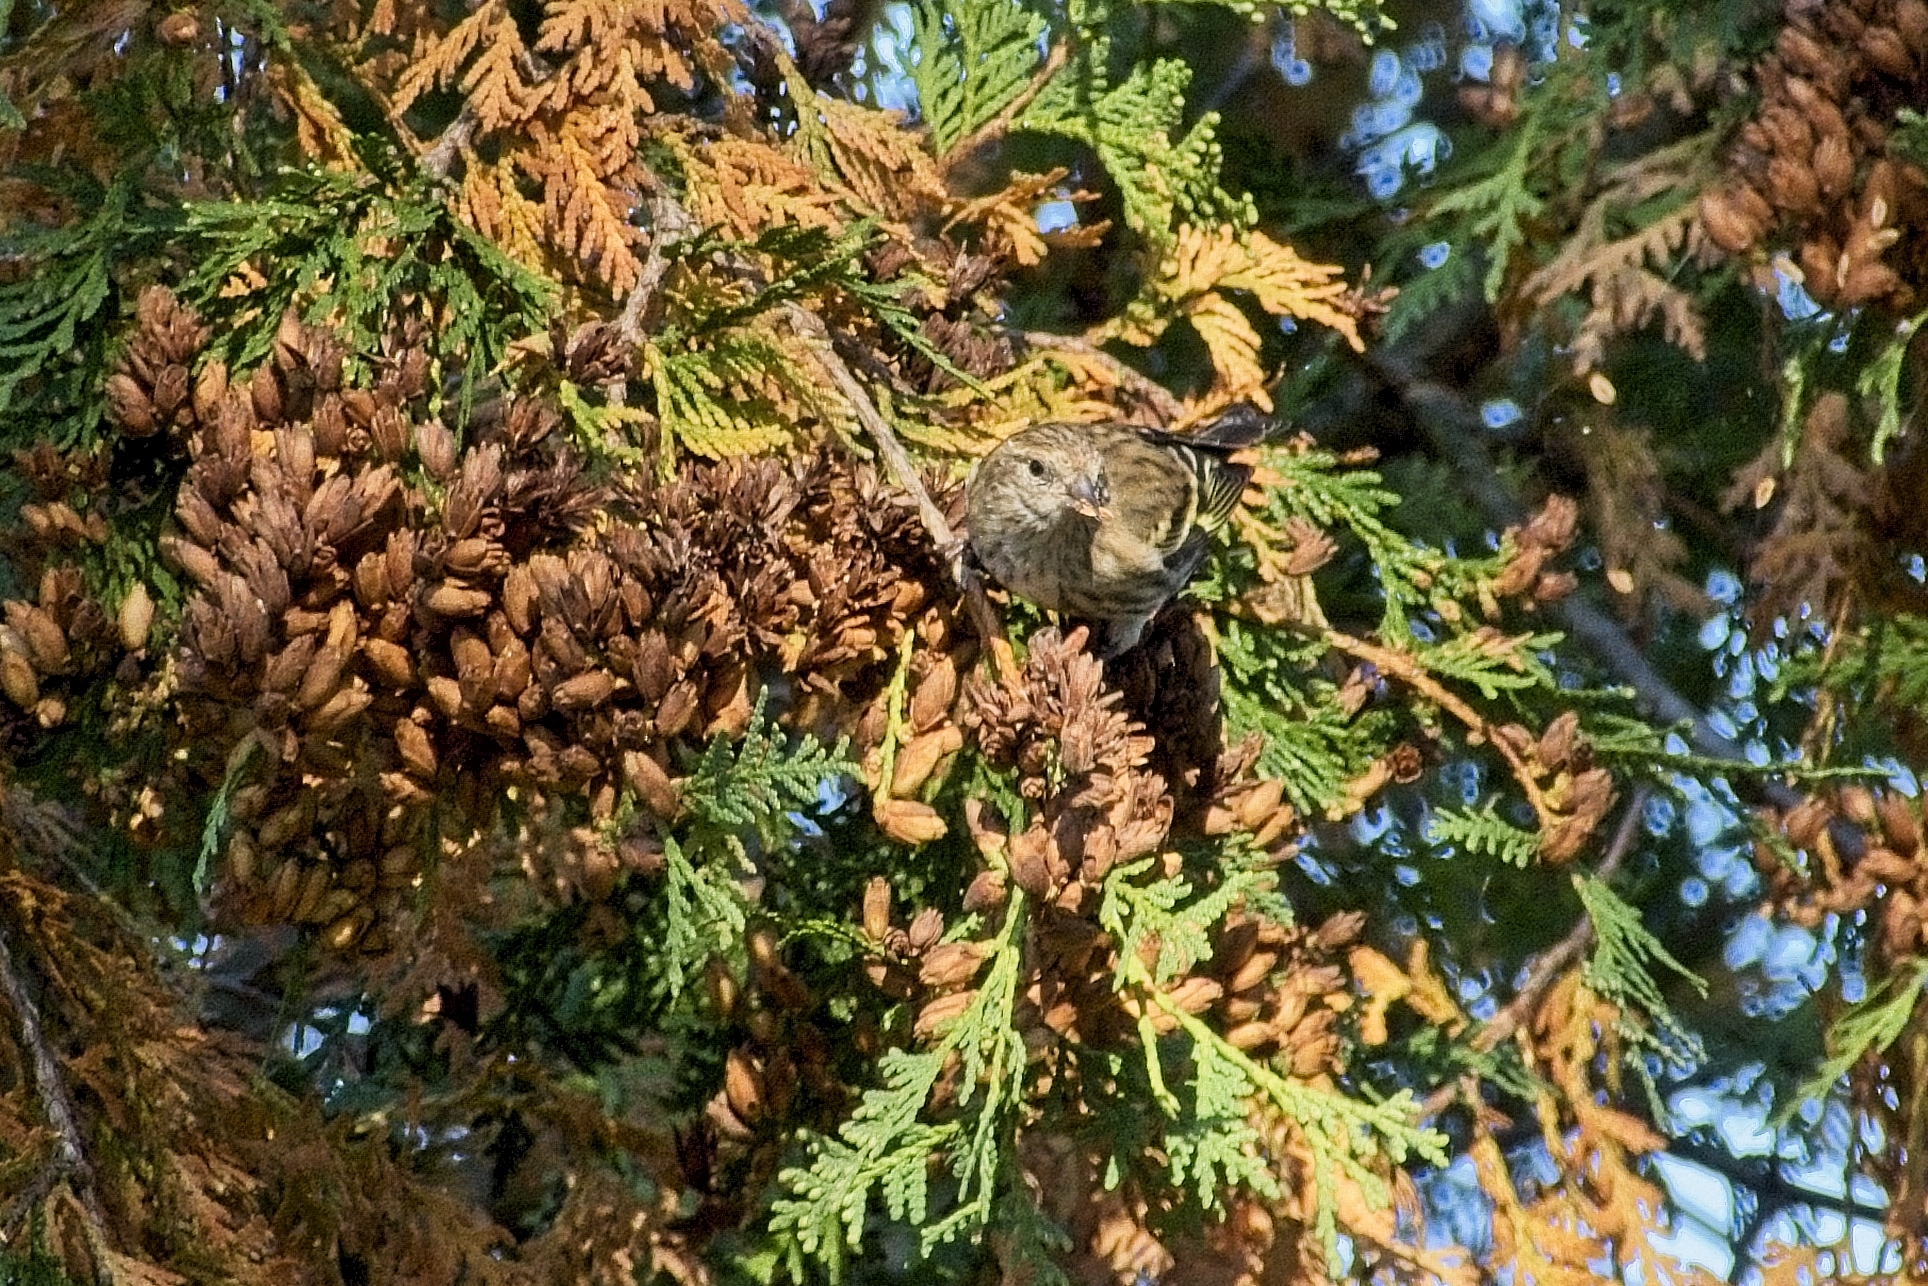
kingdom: Animalia
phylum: Chordata
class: Aves
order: Passeriformes
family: Fringillidae
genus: Spinus
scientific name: Spinus pinus
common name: Pine siskin
